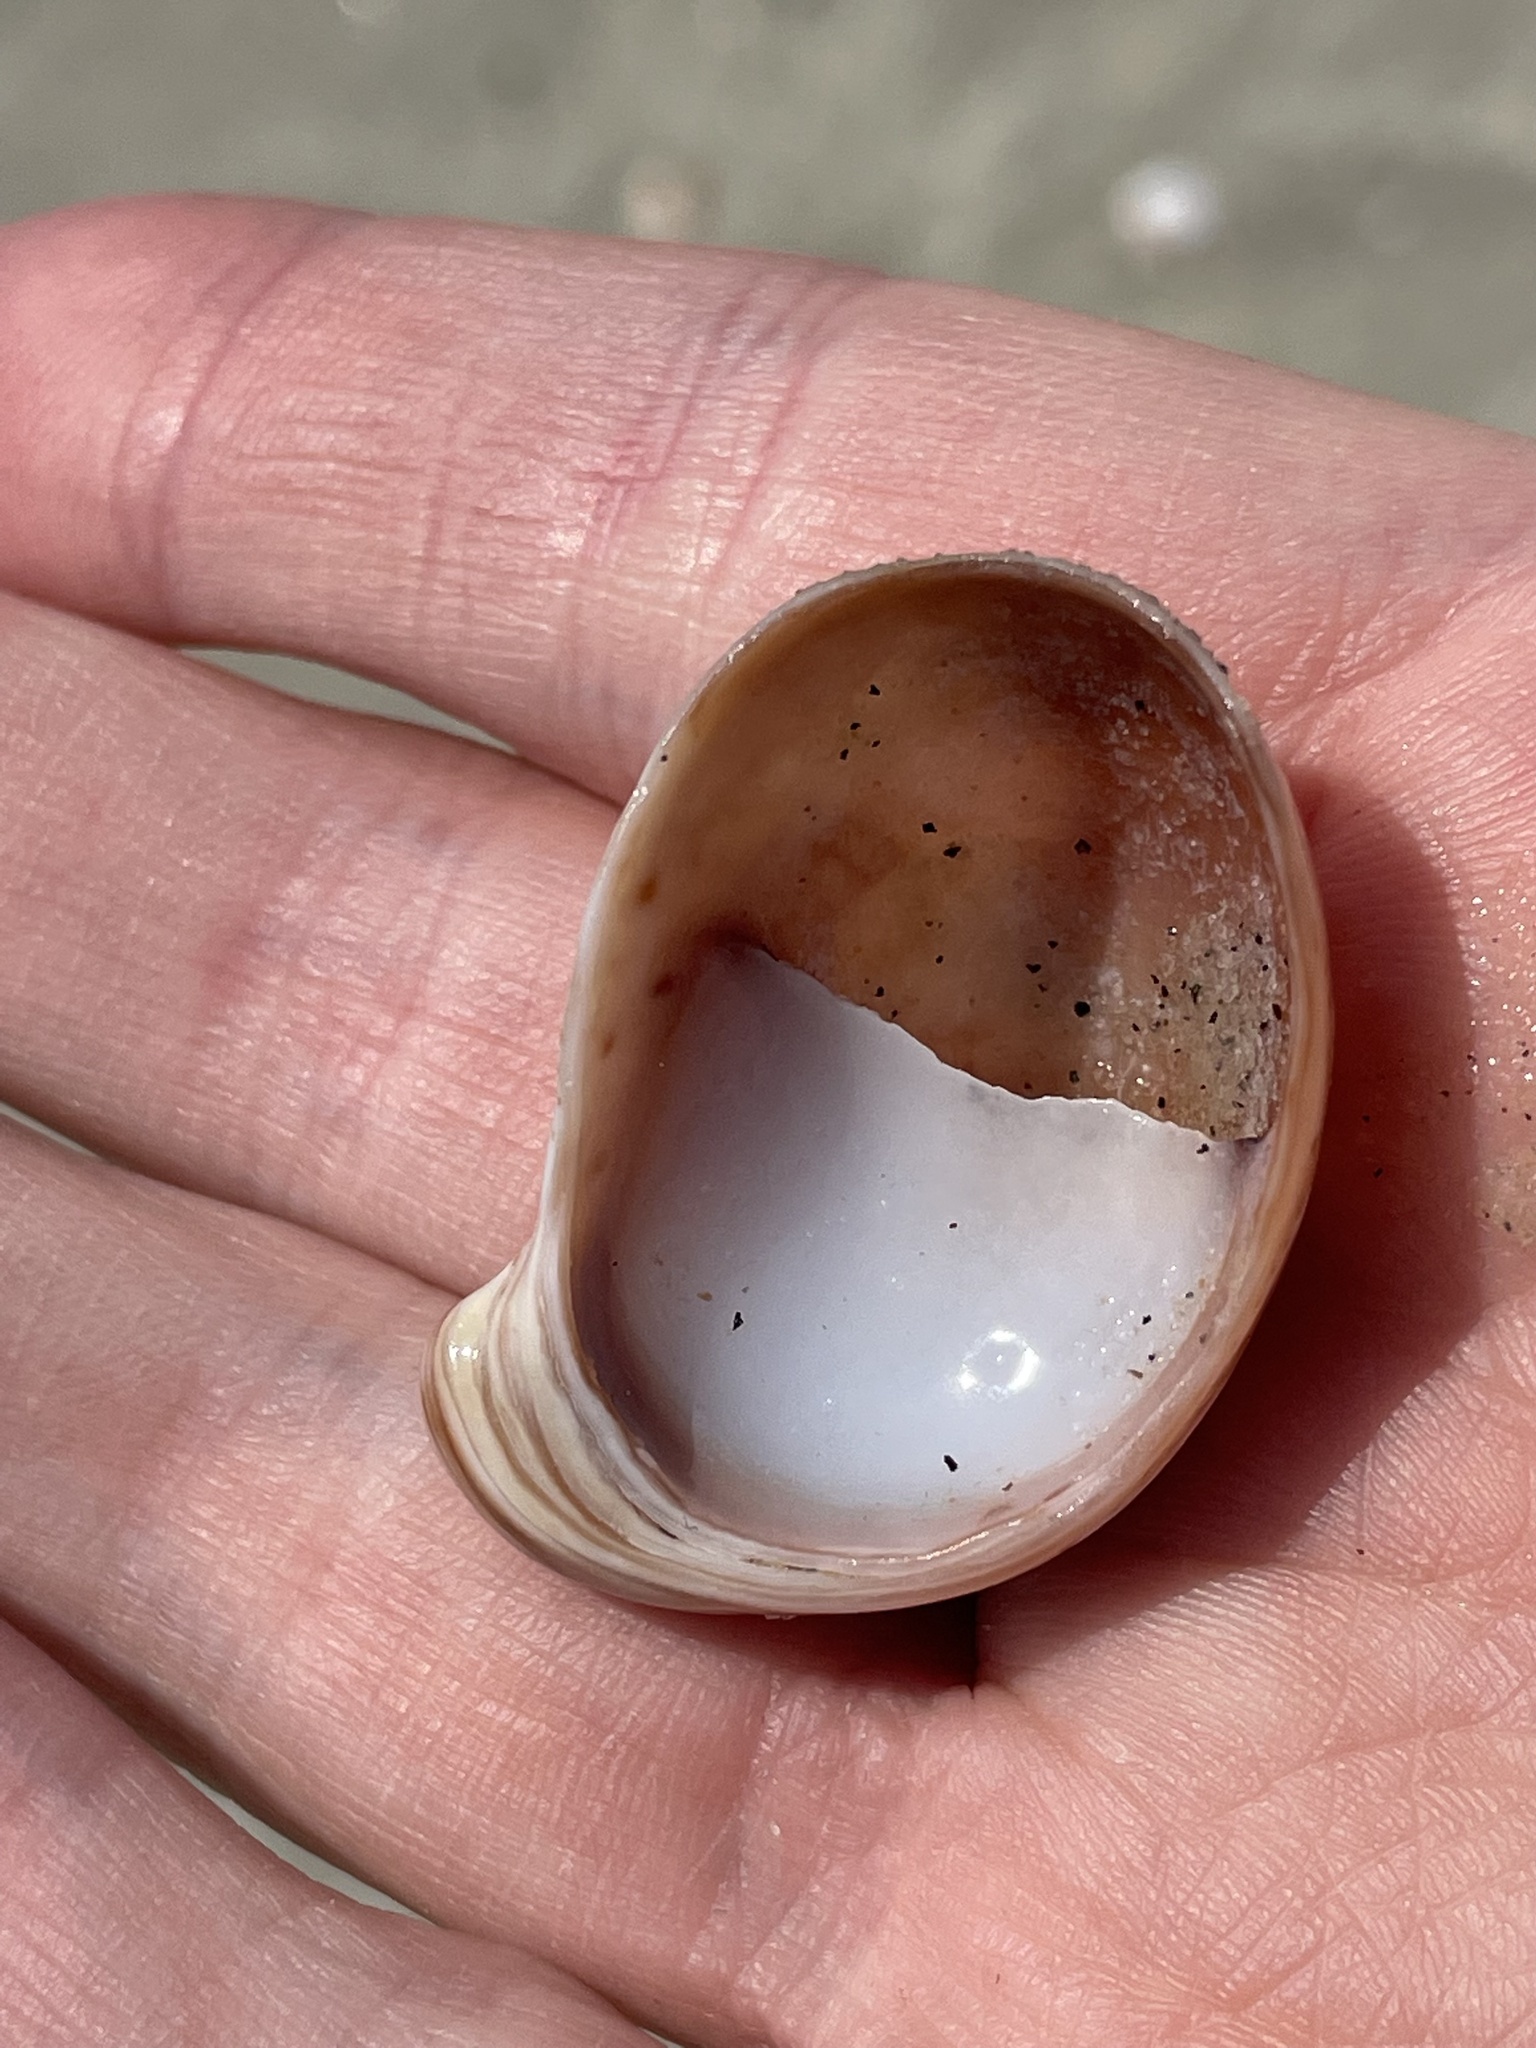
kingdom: Animalia
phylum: Mollusca
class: Gastropoda
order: Littorinimorpha
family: Calyptraeidae
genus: Crepidula
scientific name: Crepidula fornicata
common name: Slipper limpet
